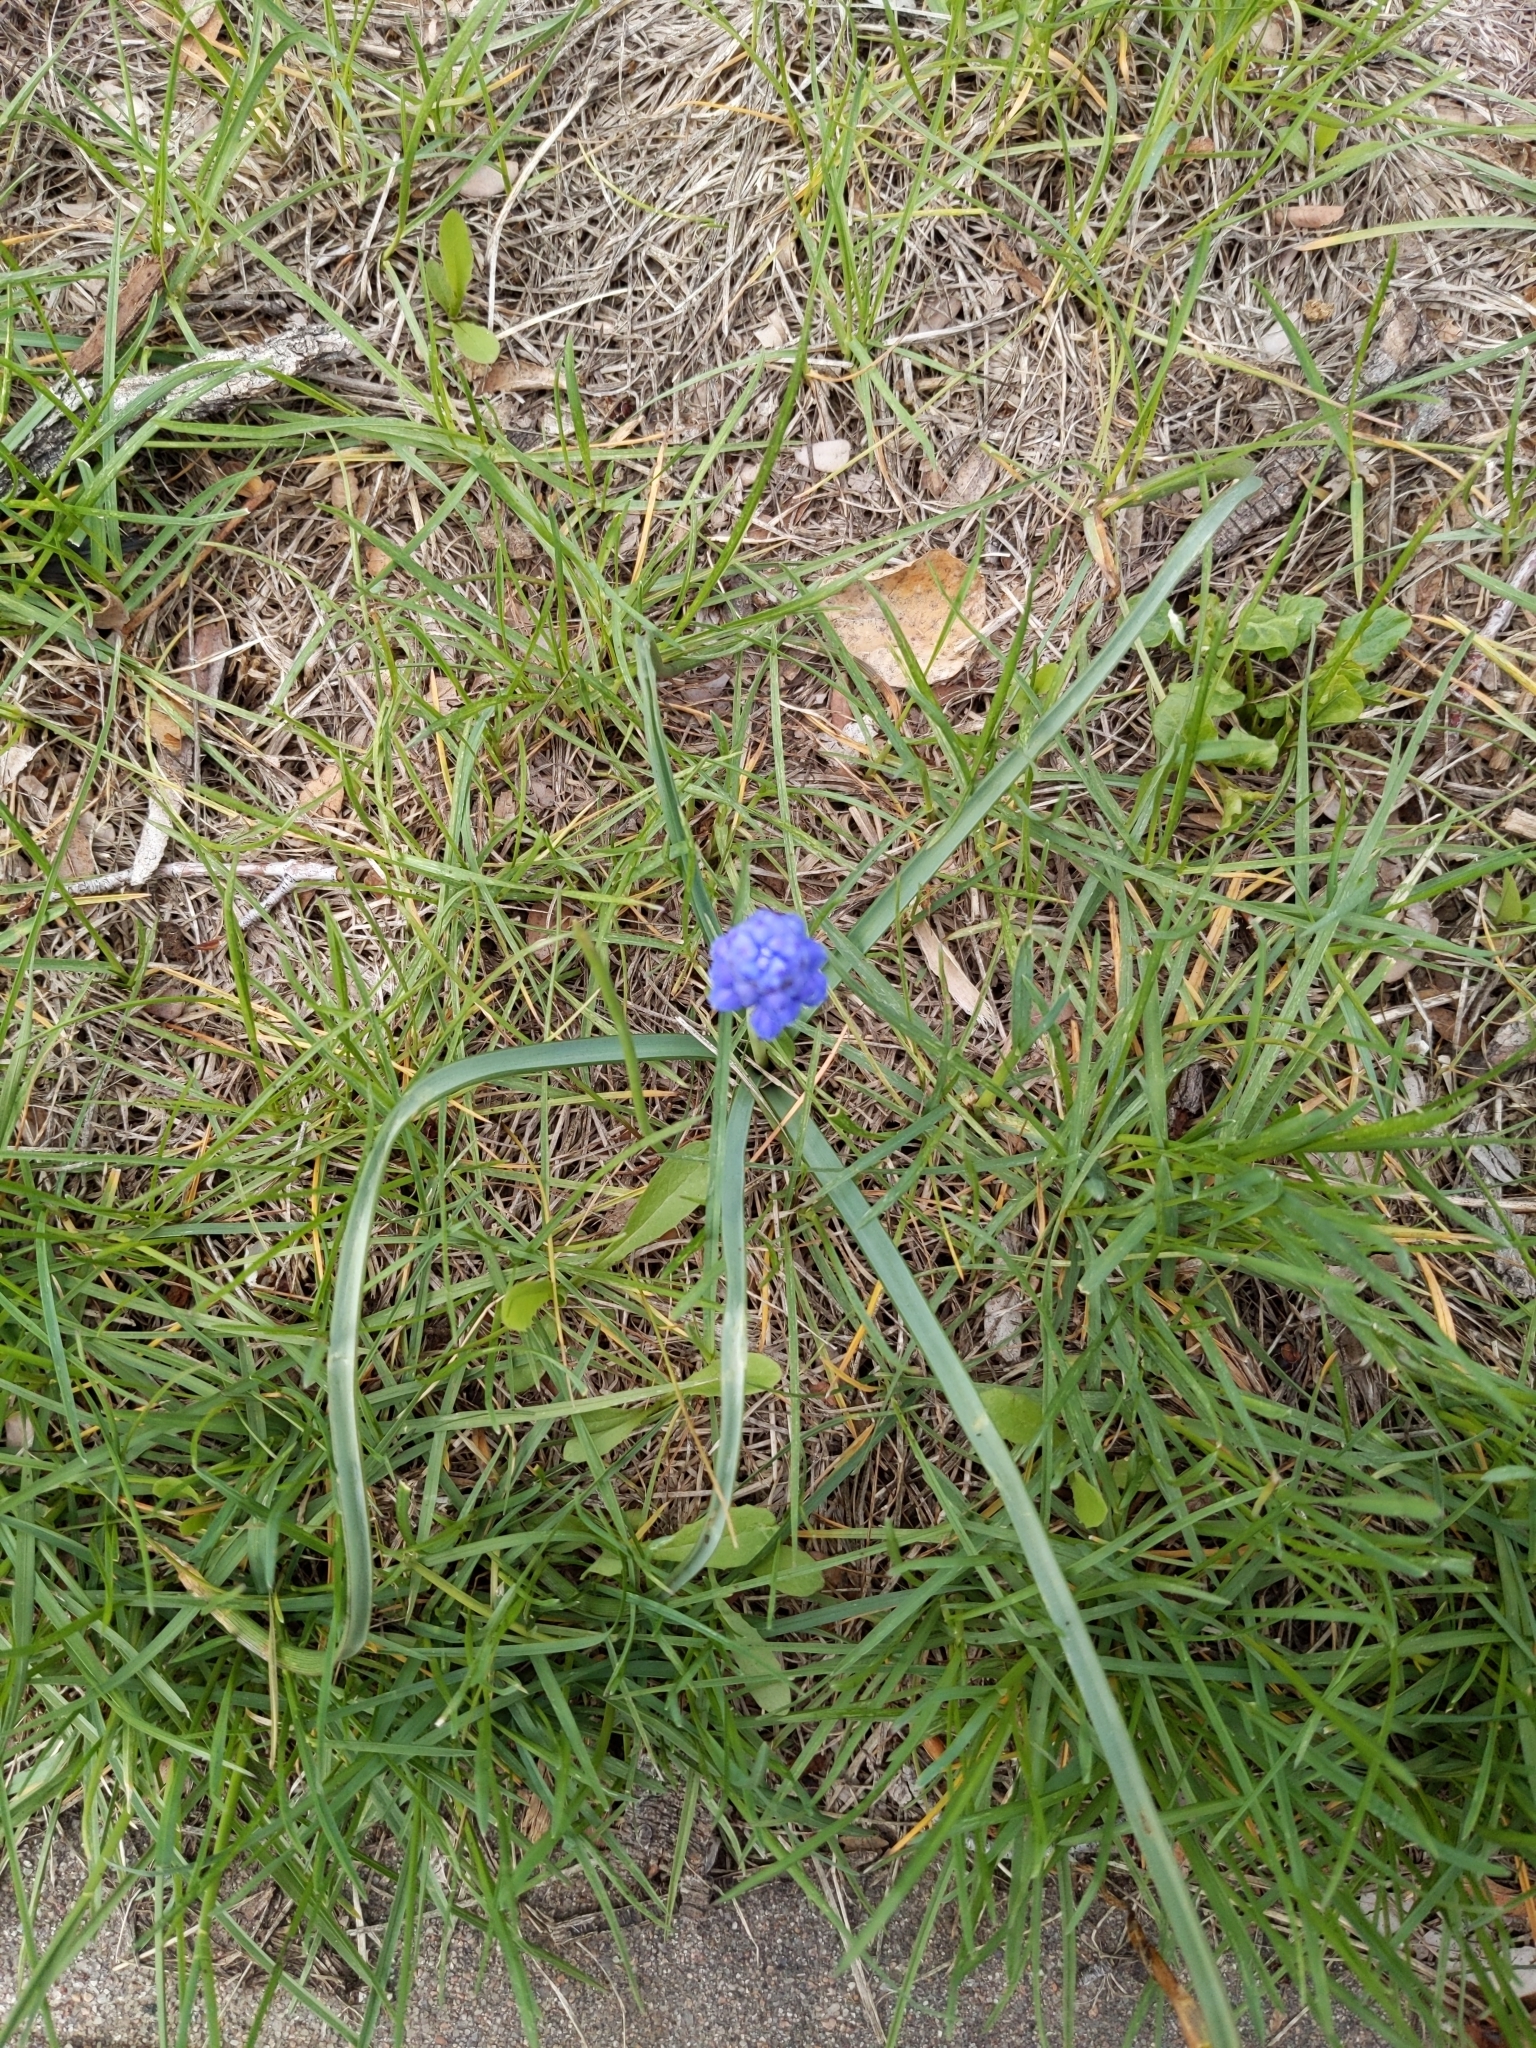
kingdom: Plantae
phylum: Tracheophyta
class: Liliopsida
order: Asparagales
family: Asparagaceae
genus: Muscari
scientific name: Muscari botryoides
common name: Compact grape-hyacinth
